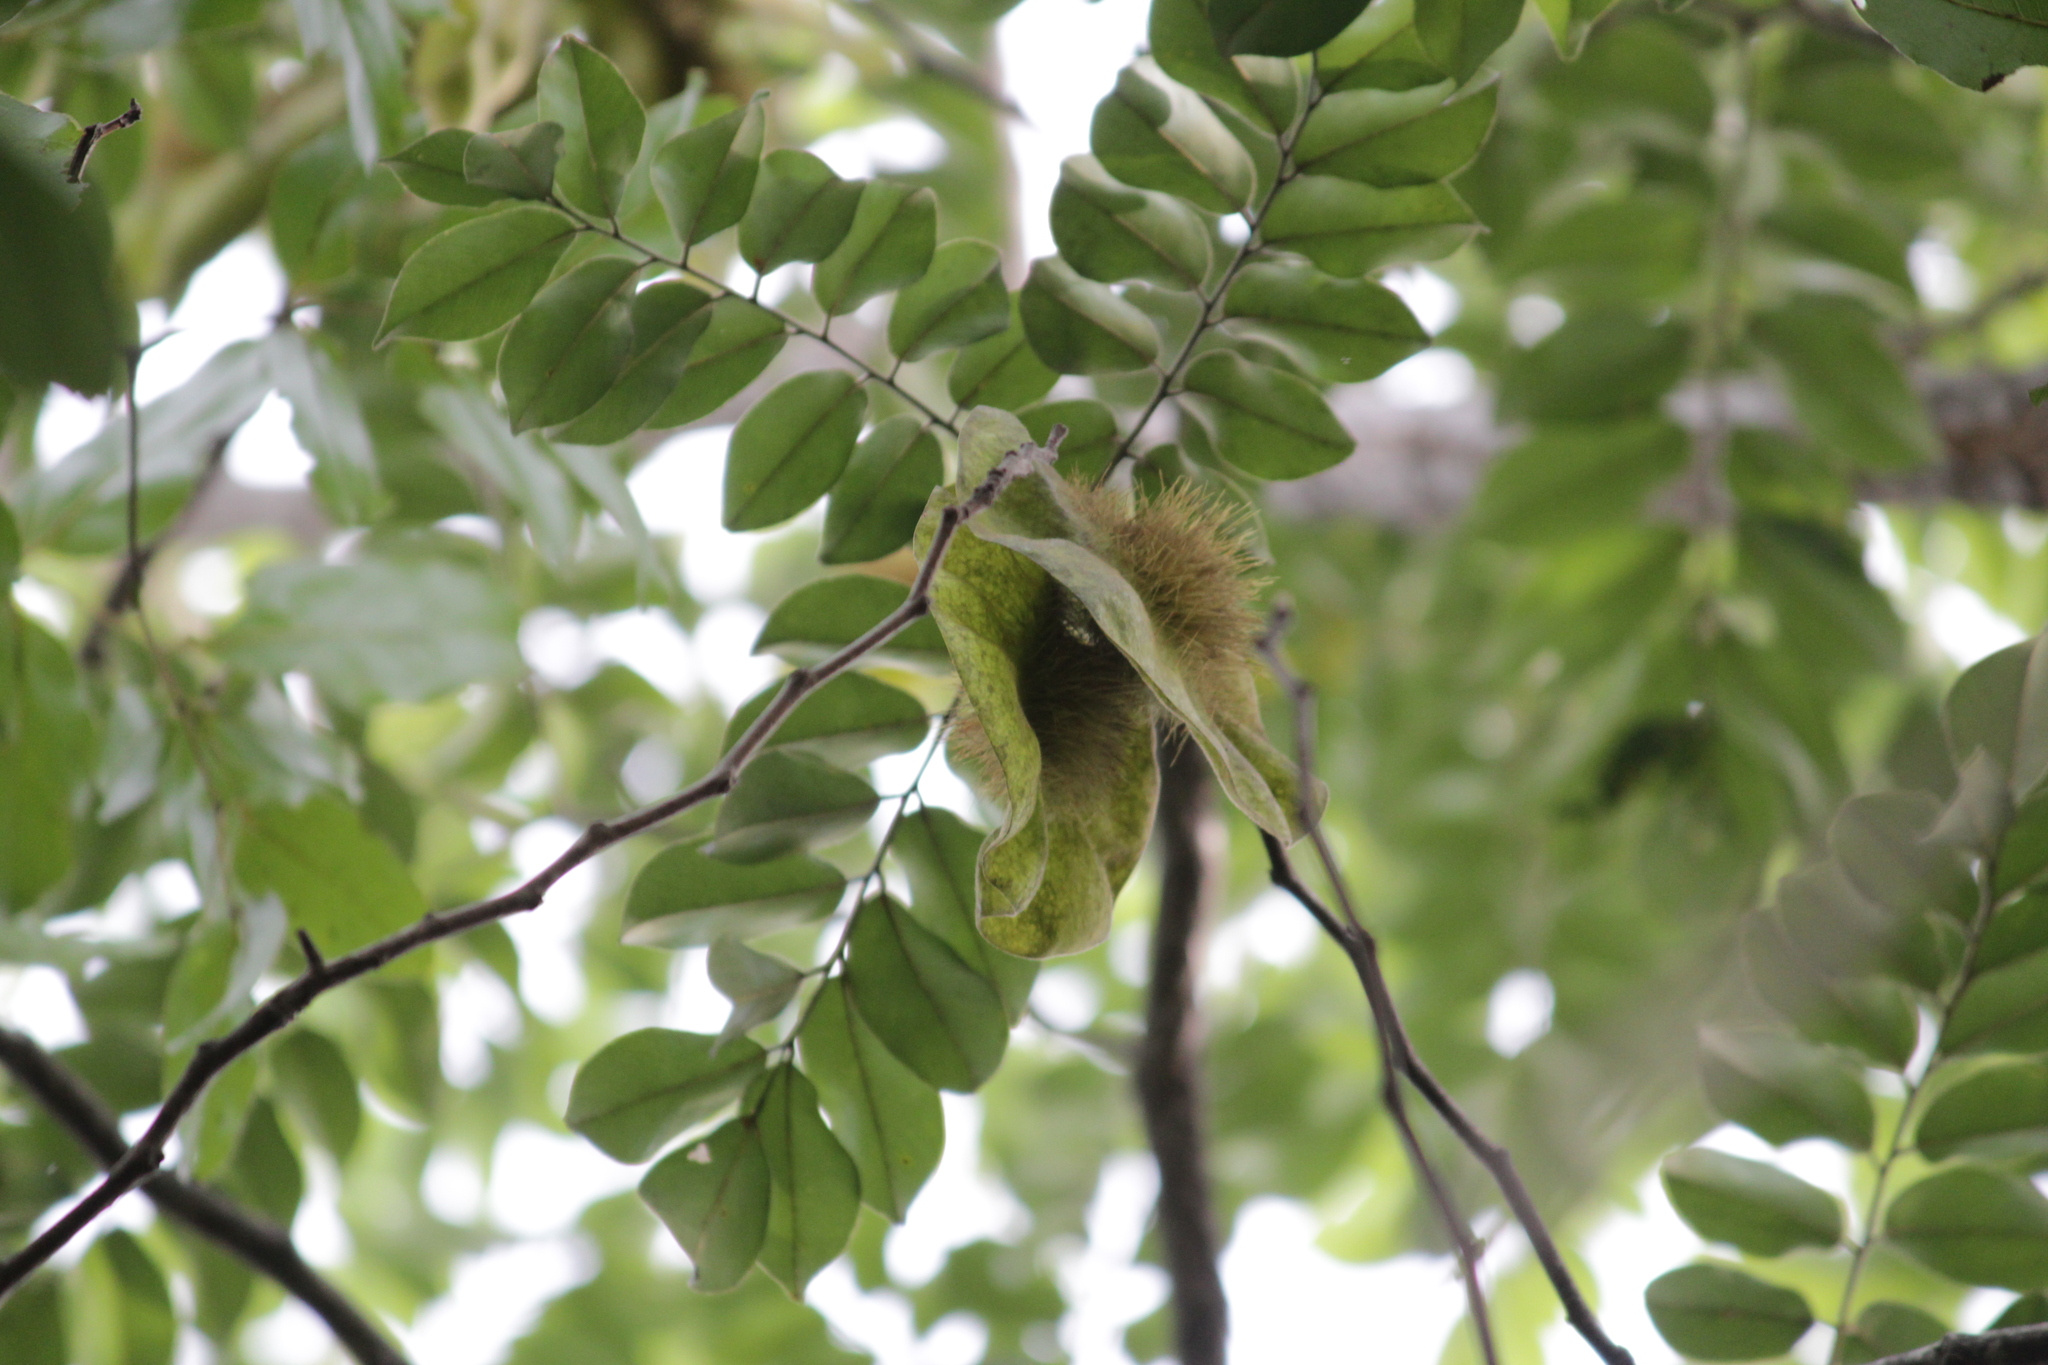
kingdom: Plantae
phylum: Tracheophyta
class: Magnoliopsida
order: Fabales
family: Fabaceae
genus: Pterocarpus
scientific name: Pterocarpus angolensis
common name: Bloodwood tree
